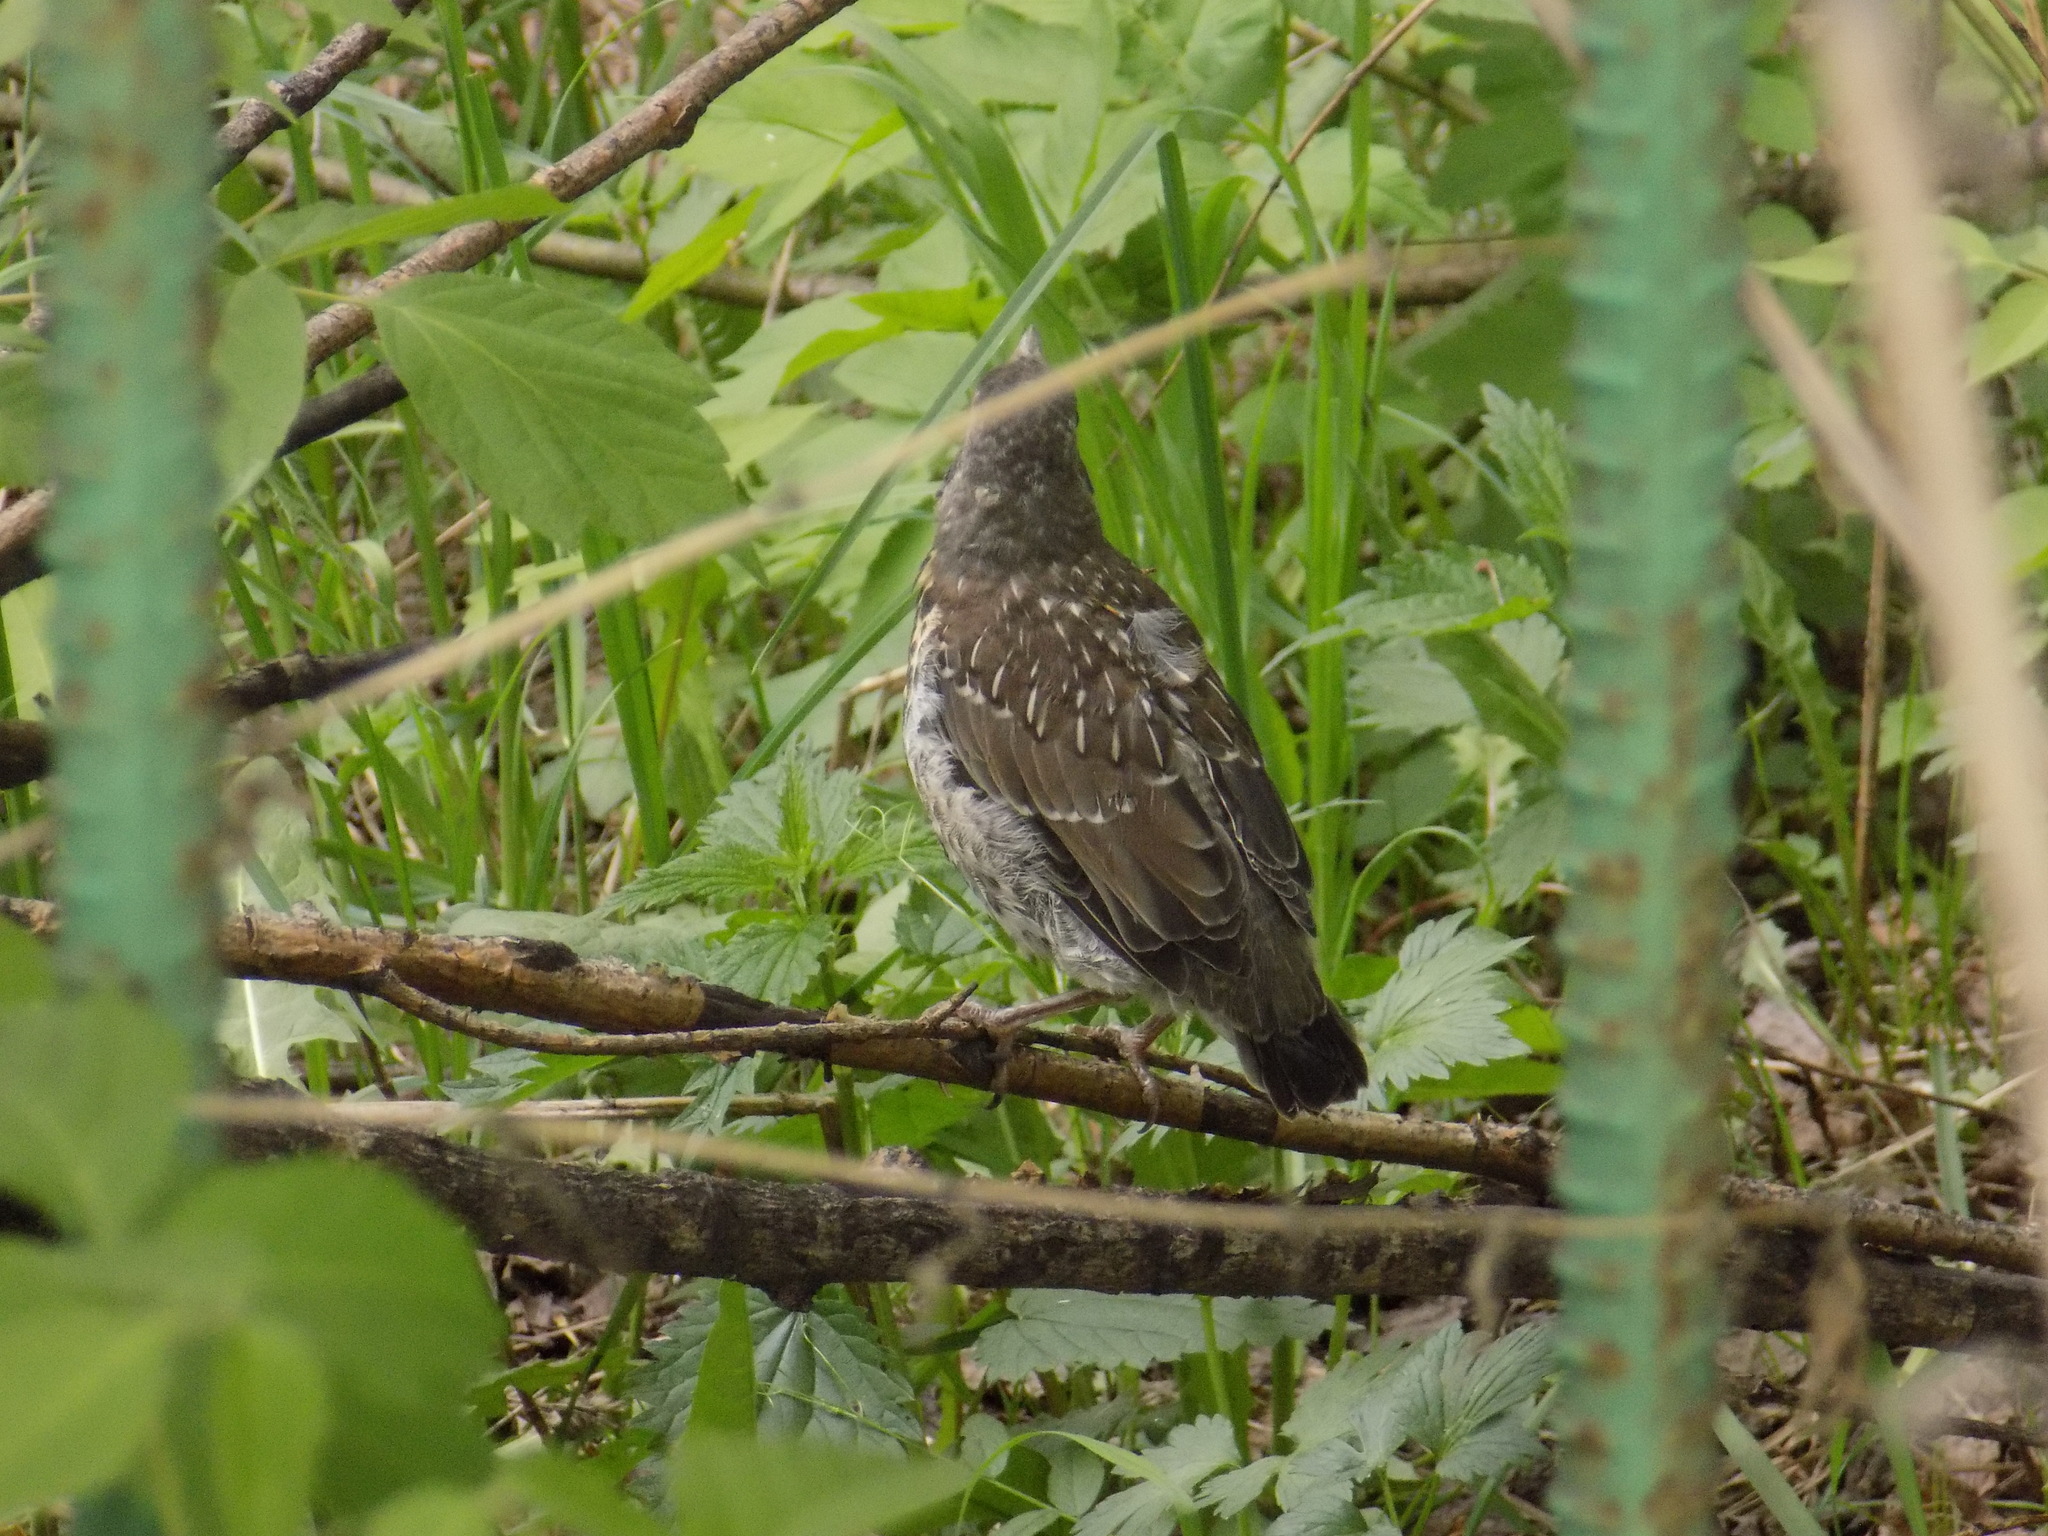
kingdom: Animalia
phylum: Chordata
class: Aves
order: Passeriformes
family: Turdidae
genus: Turdus
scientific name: Turdus pilaris
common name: Fieldfare
